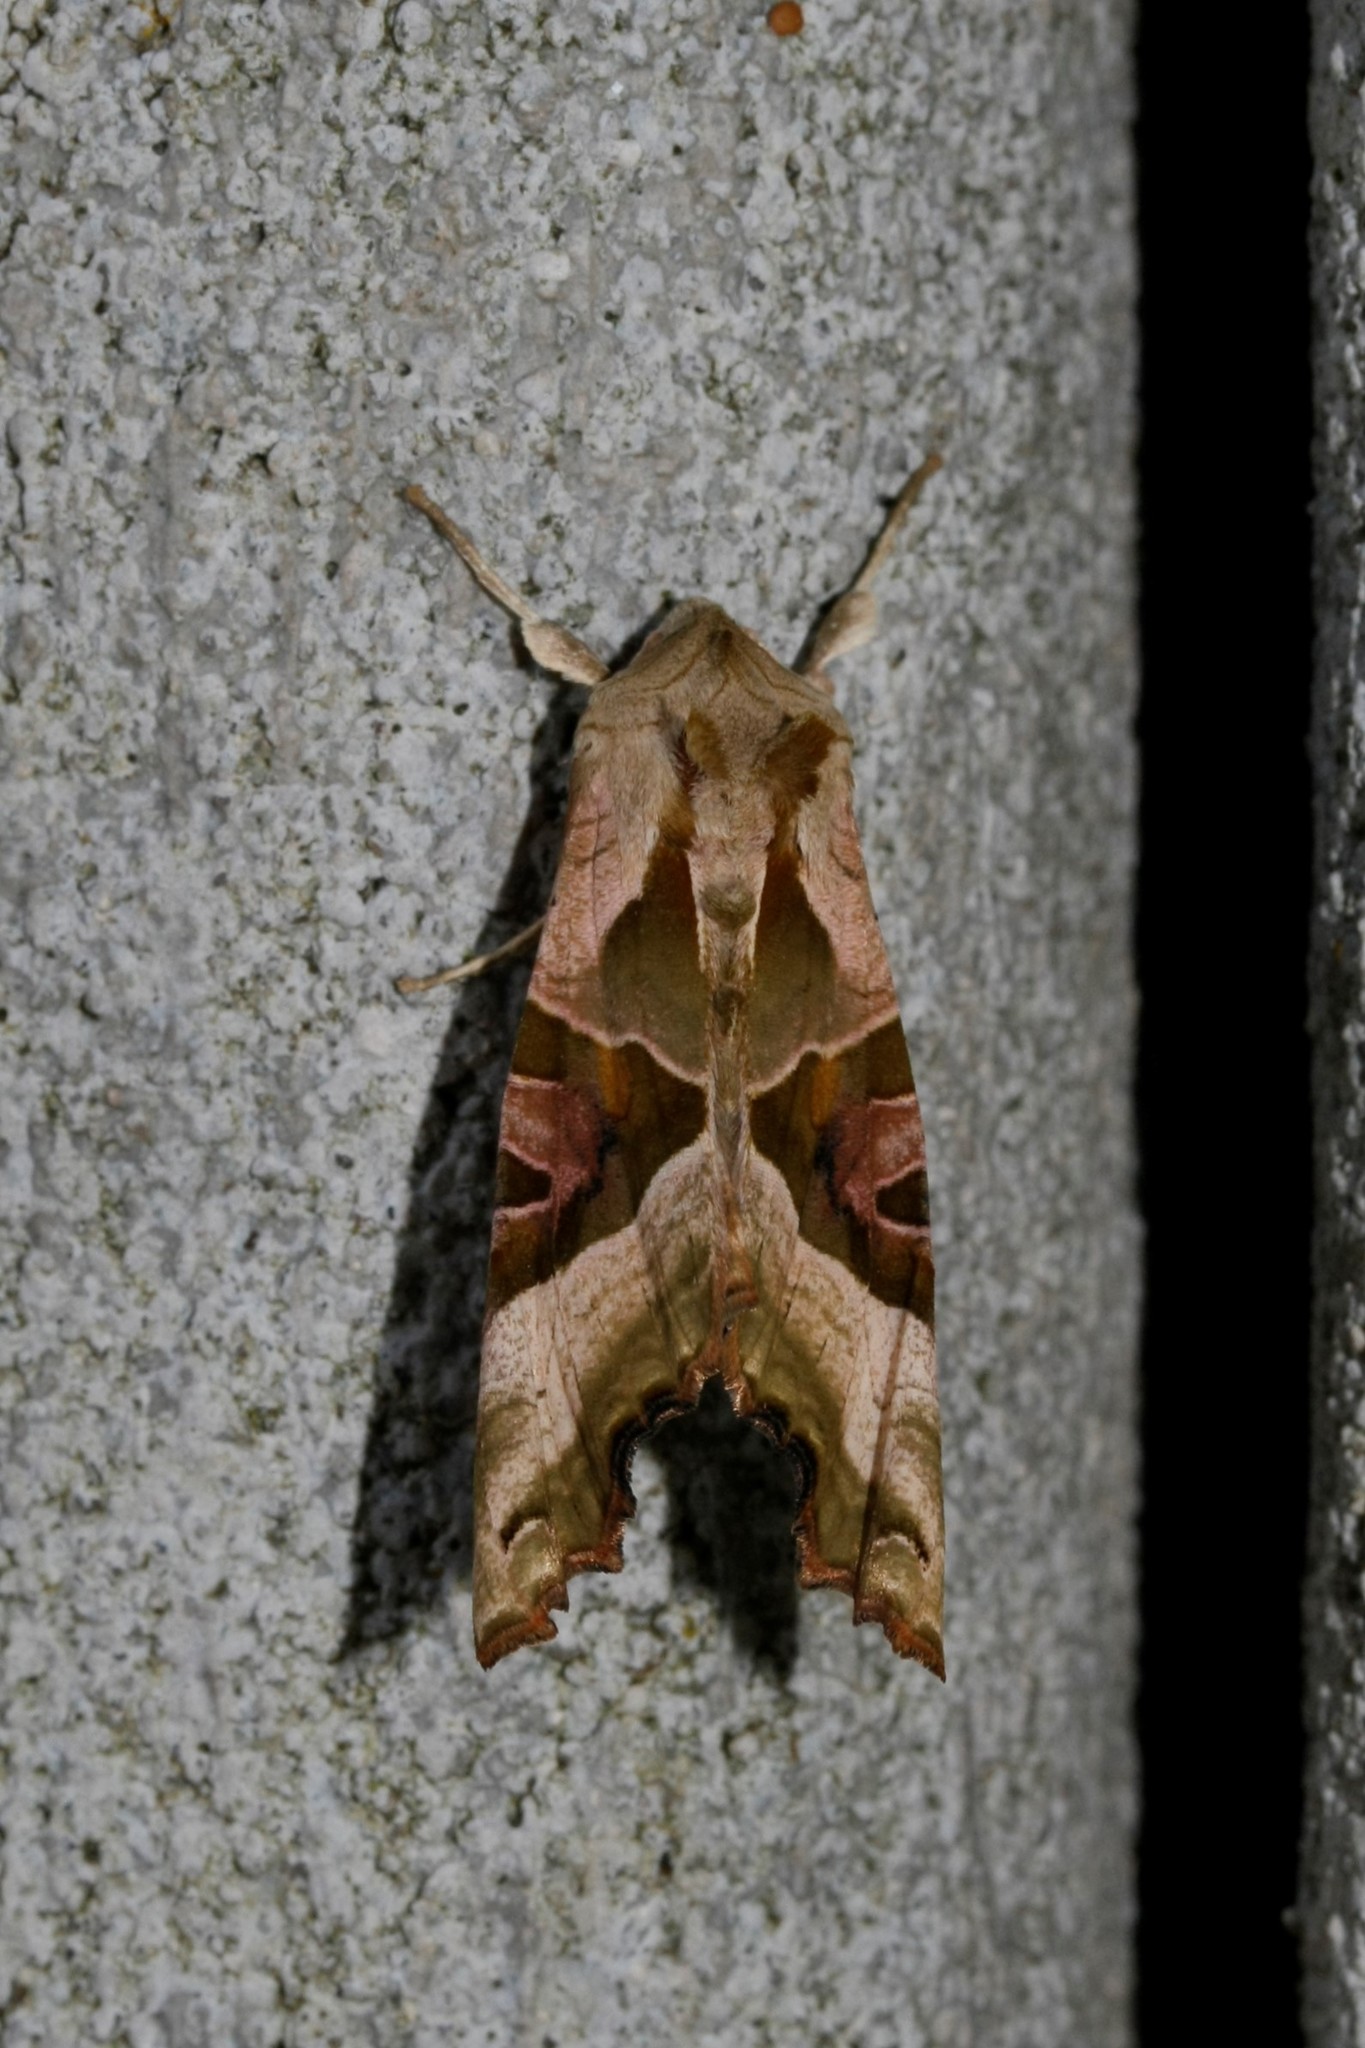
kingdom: Animalia
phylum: Arthropoda
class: Insecta
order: Lepidoptera
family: Noctuidae
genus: Phlogophora
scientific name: Phlogophora meticulosa
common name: Angle shades
